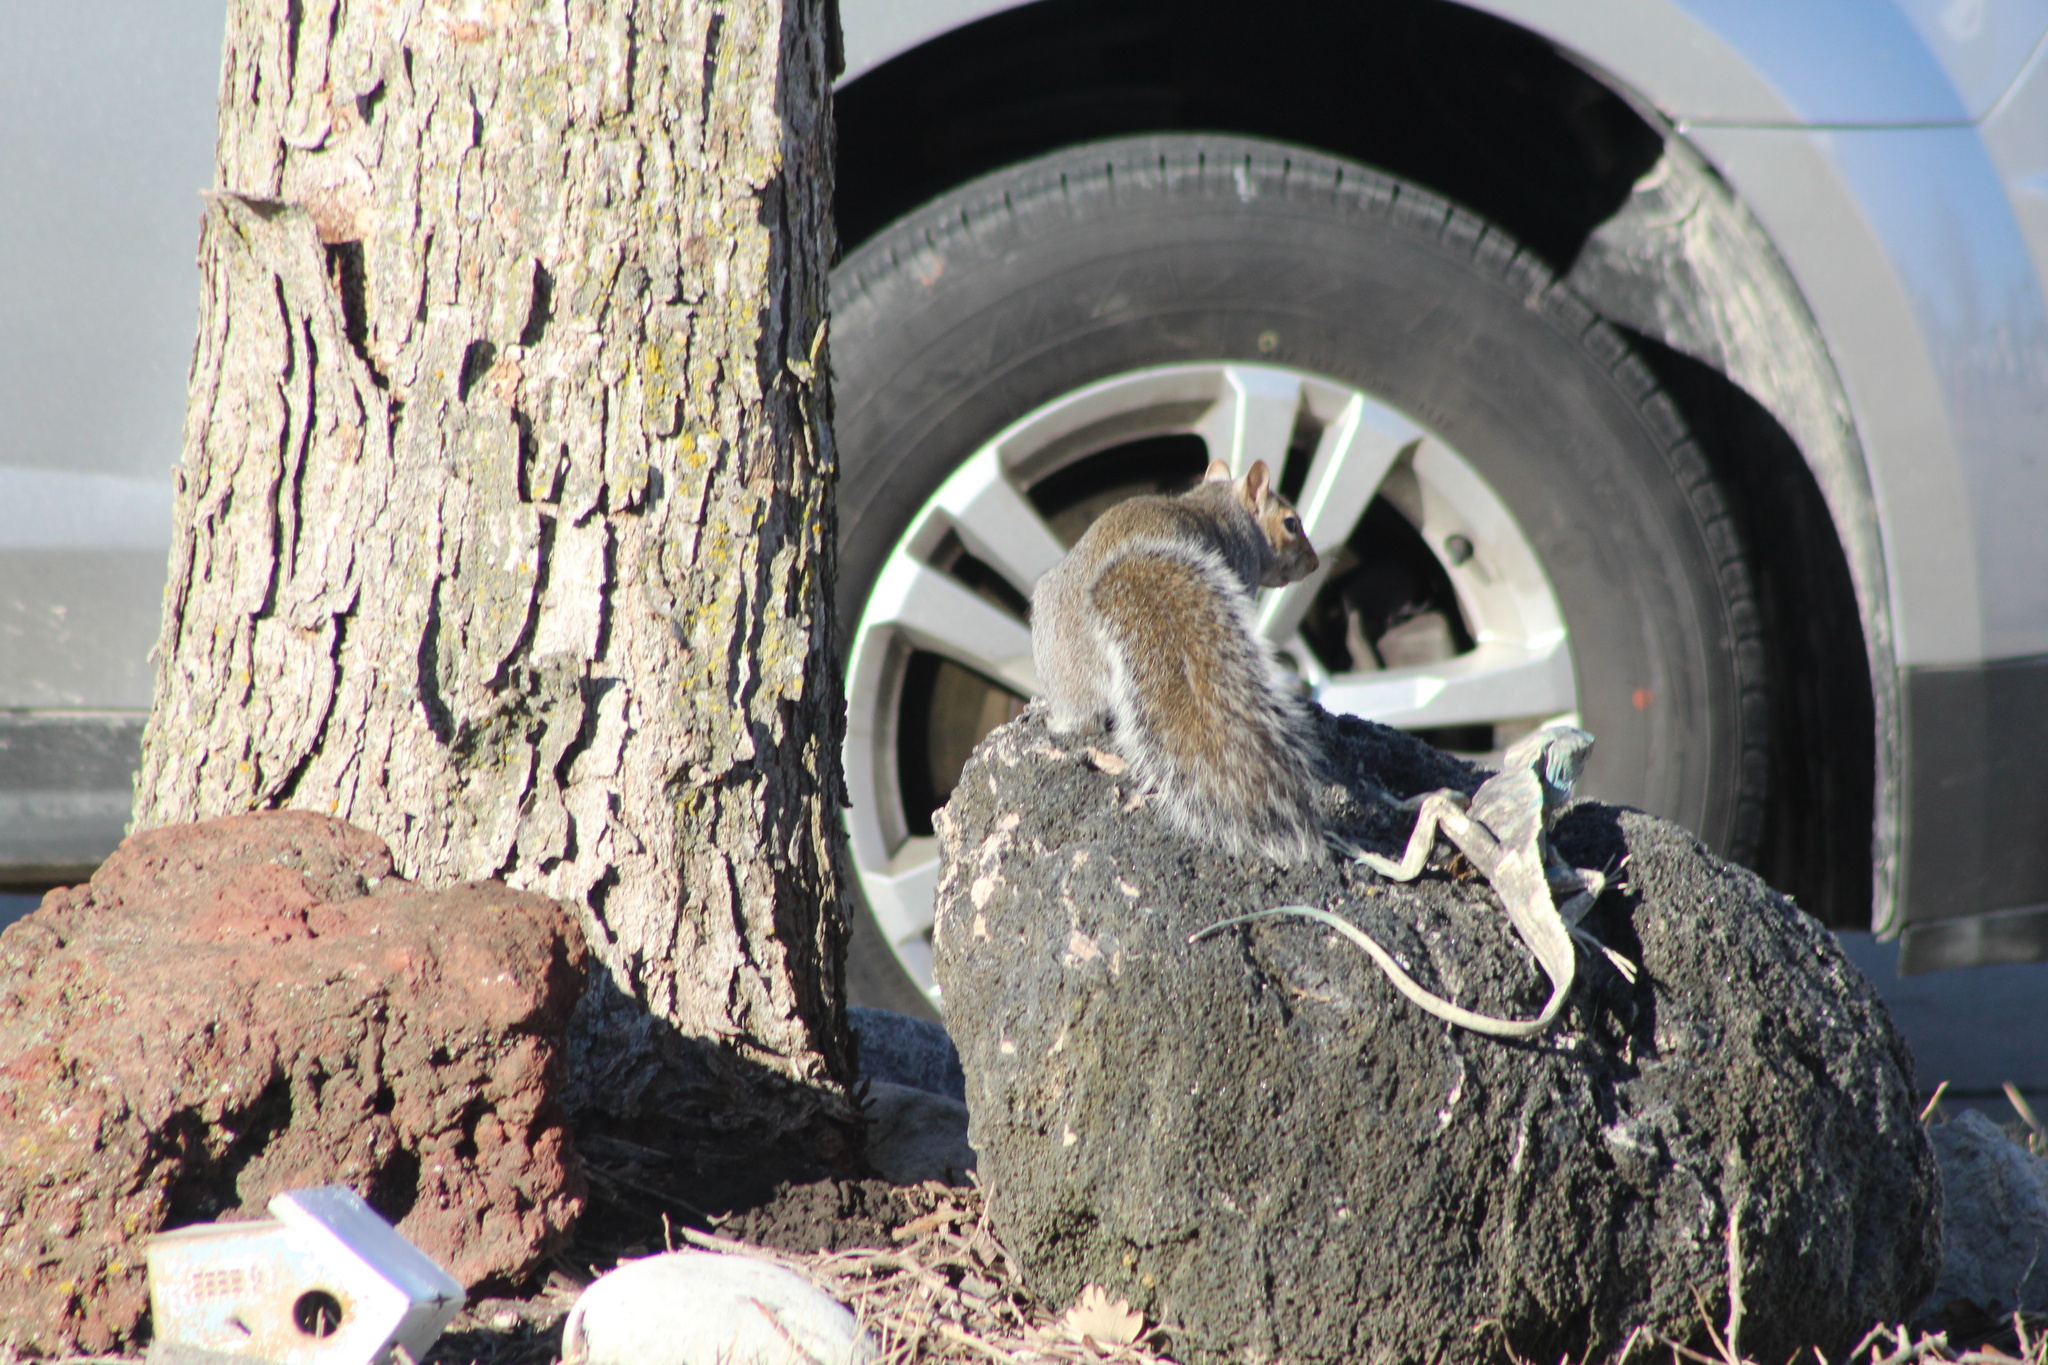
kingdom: Animalia
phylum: Chordata
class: Mammalia
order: Rodentia
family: Sciuridae
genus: Sciurus
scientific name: Sciurus carolinensis
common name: Eastern gray squirrel
